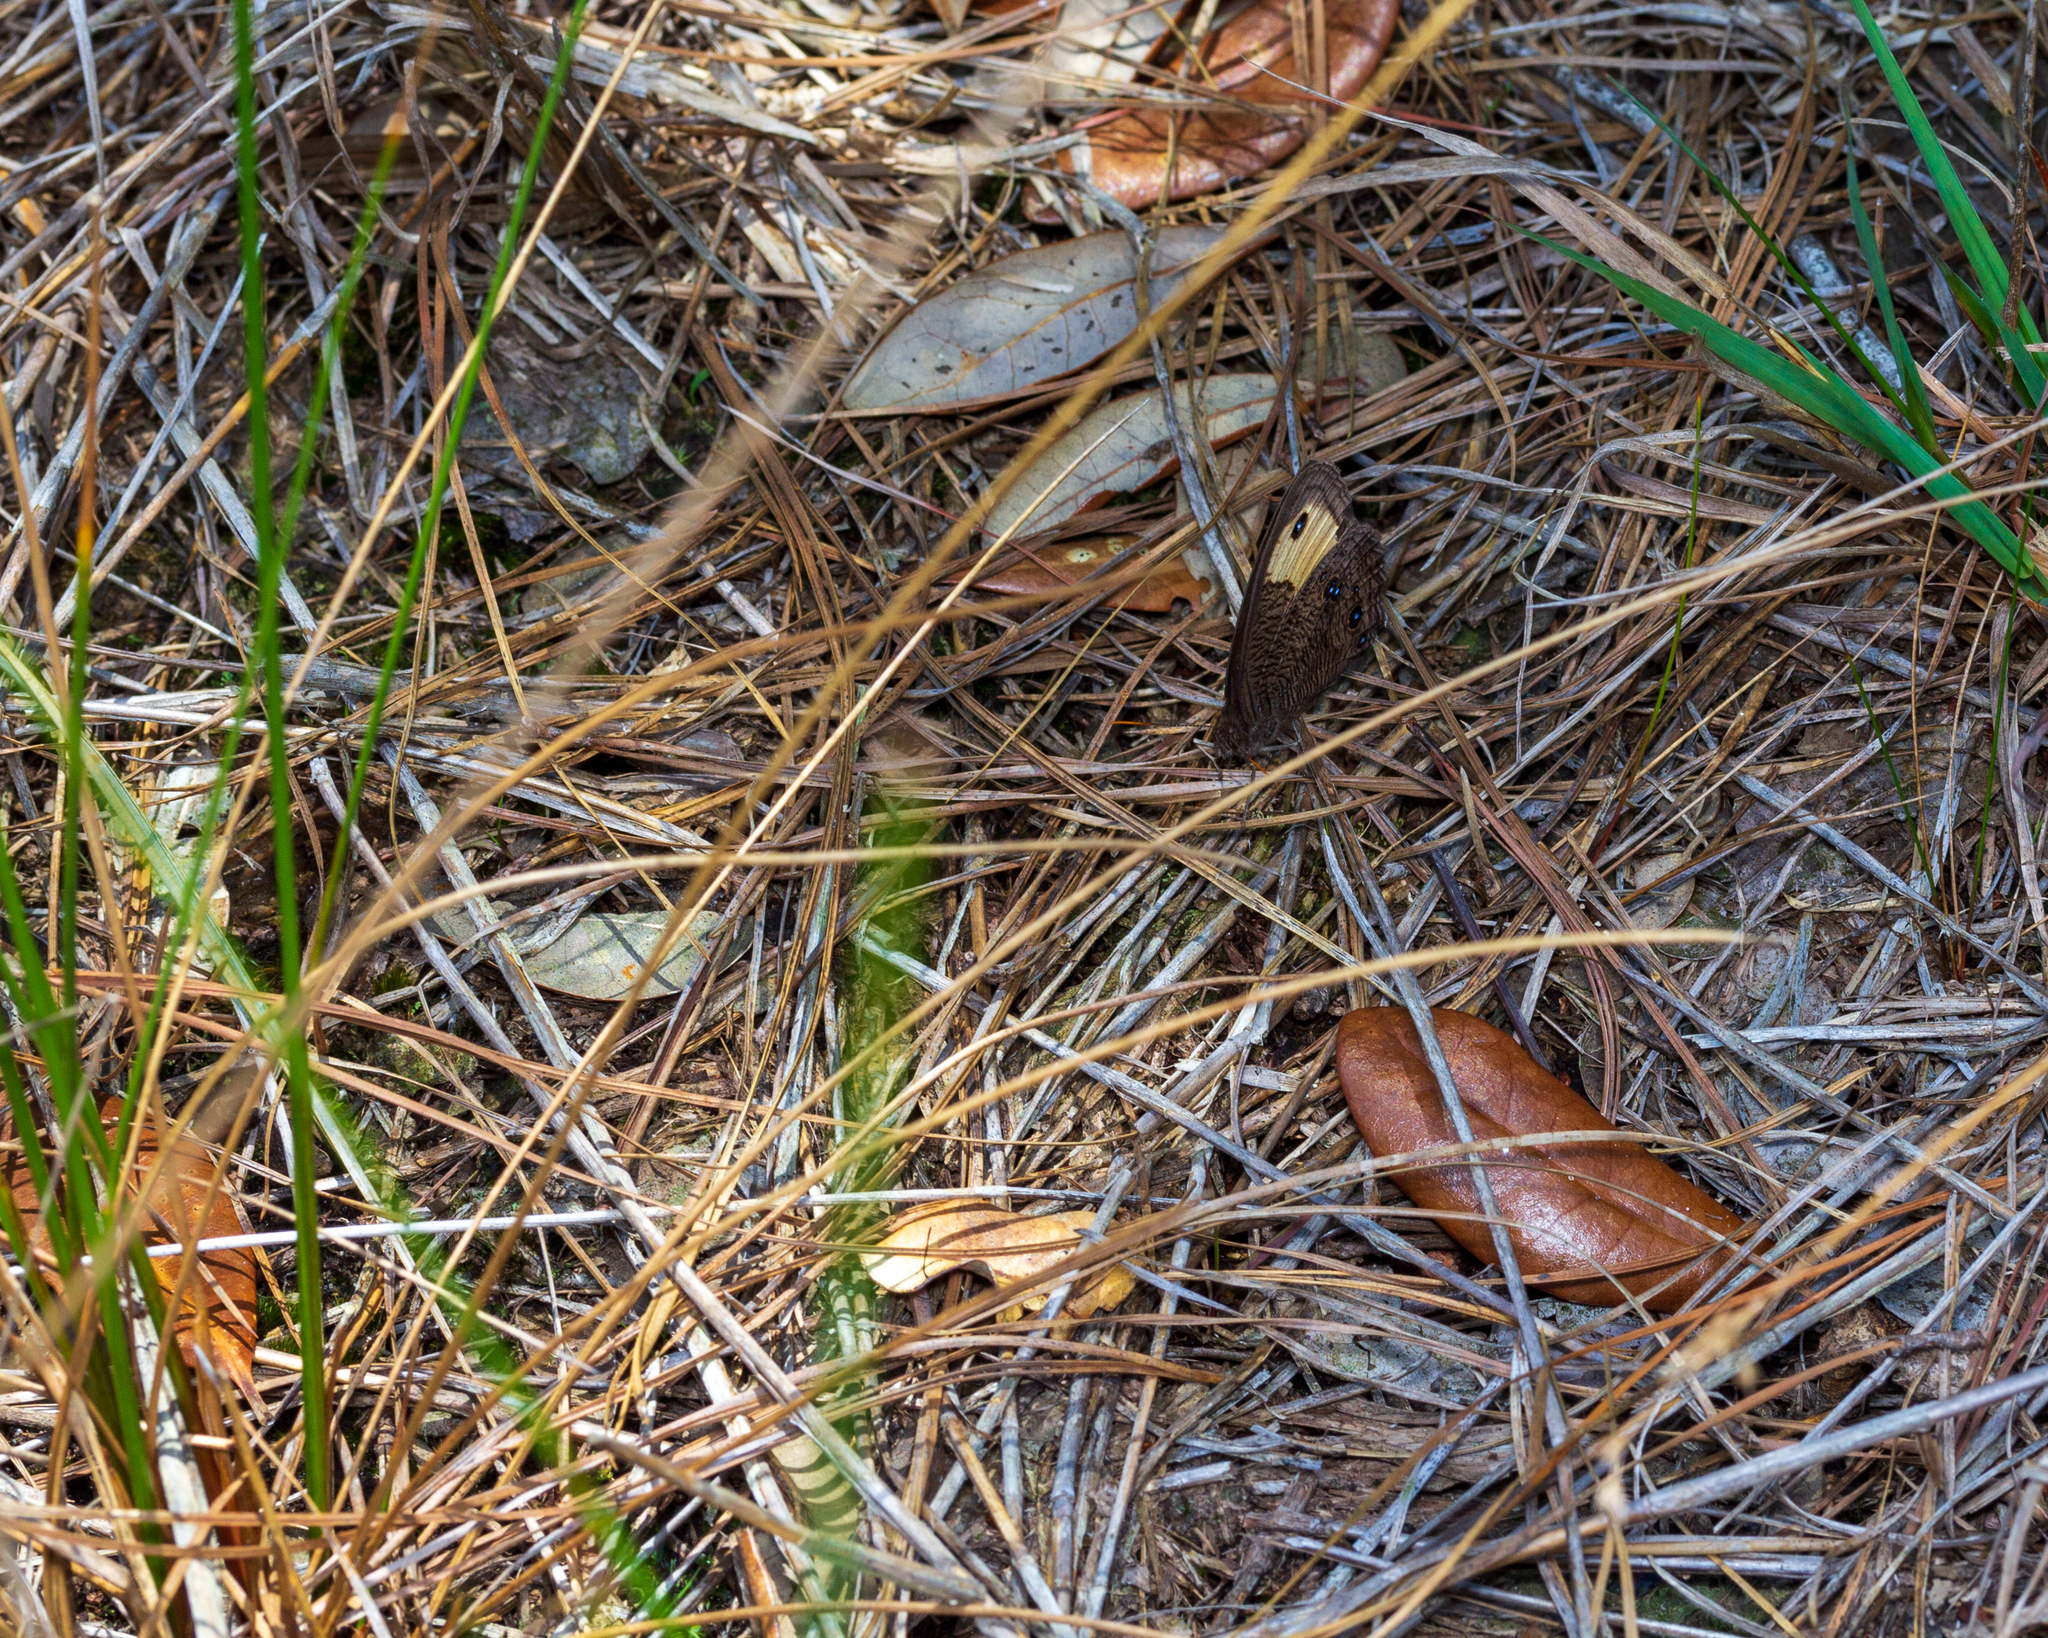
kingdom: Animalia
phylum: Arthropoda
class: Insecta
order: Lepidoptera
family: Nymphalidae
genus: Cercyonis
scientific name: Cercyonis pegala
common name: Common wood-nymph
